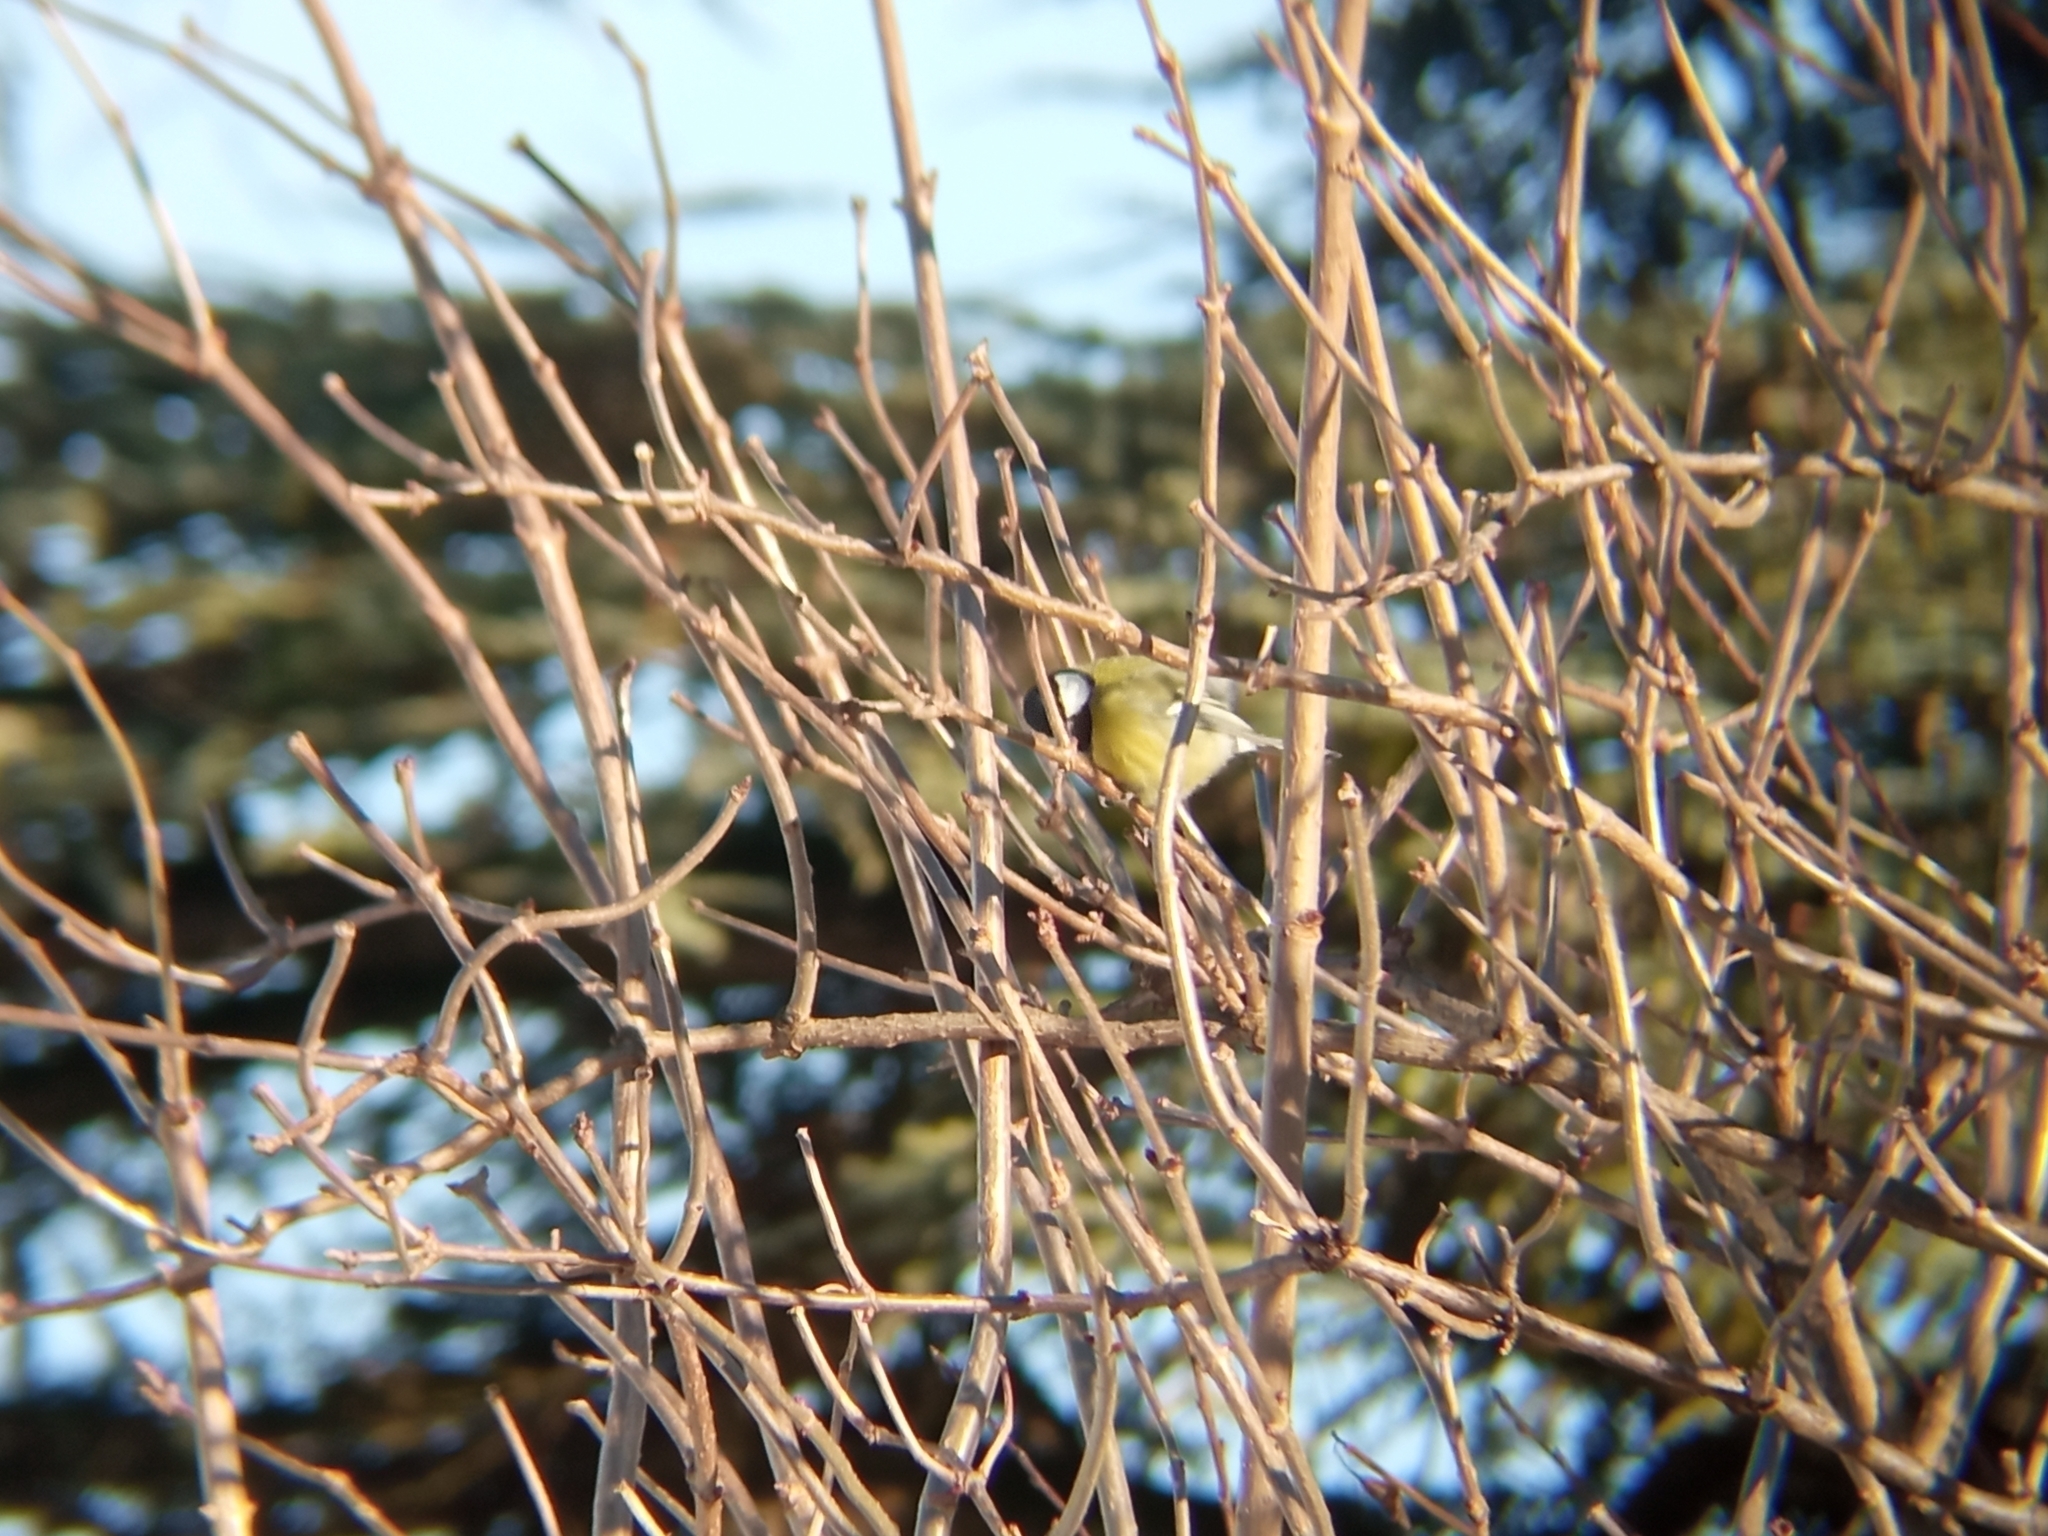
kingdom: Animalia
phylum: Chordata
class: Aves
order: Passeriformes
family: Paridae
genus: Parus
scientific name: Parus major
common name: Great tit
